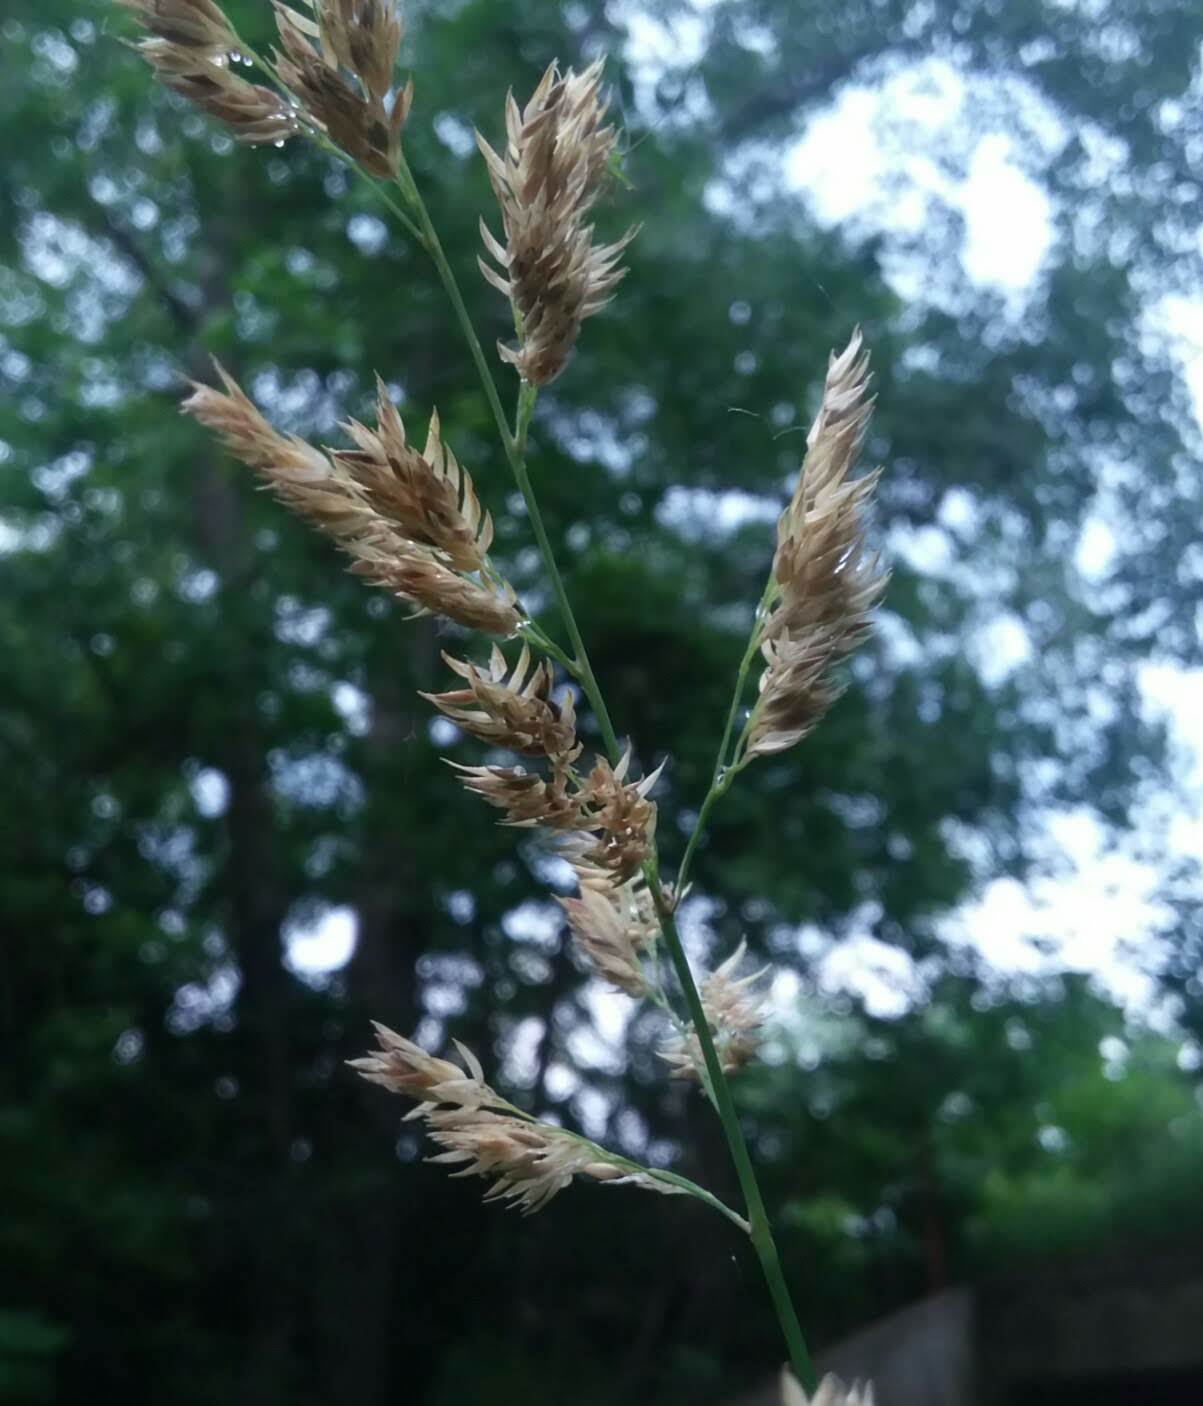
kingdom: Plantae
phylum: Tracheophyta
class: Liliopsida
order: Poales
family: Poaceae
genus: Phalaris
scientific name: Phalaris arundinacea
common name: Reed canary-grass
